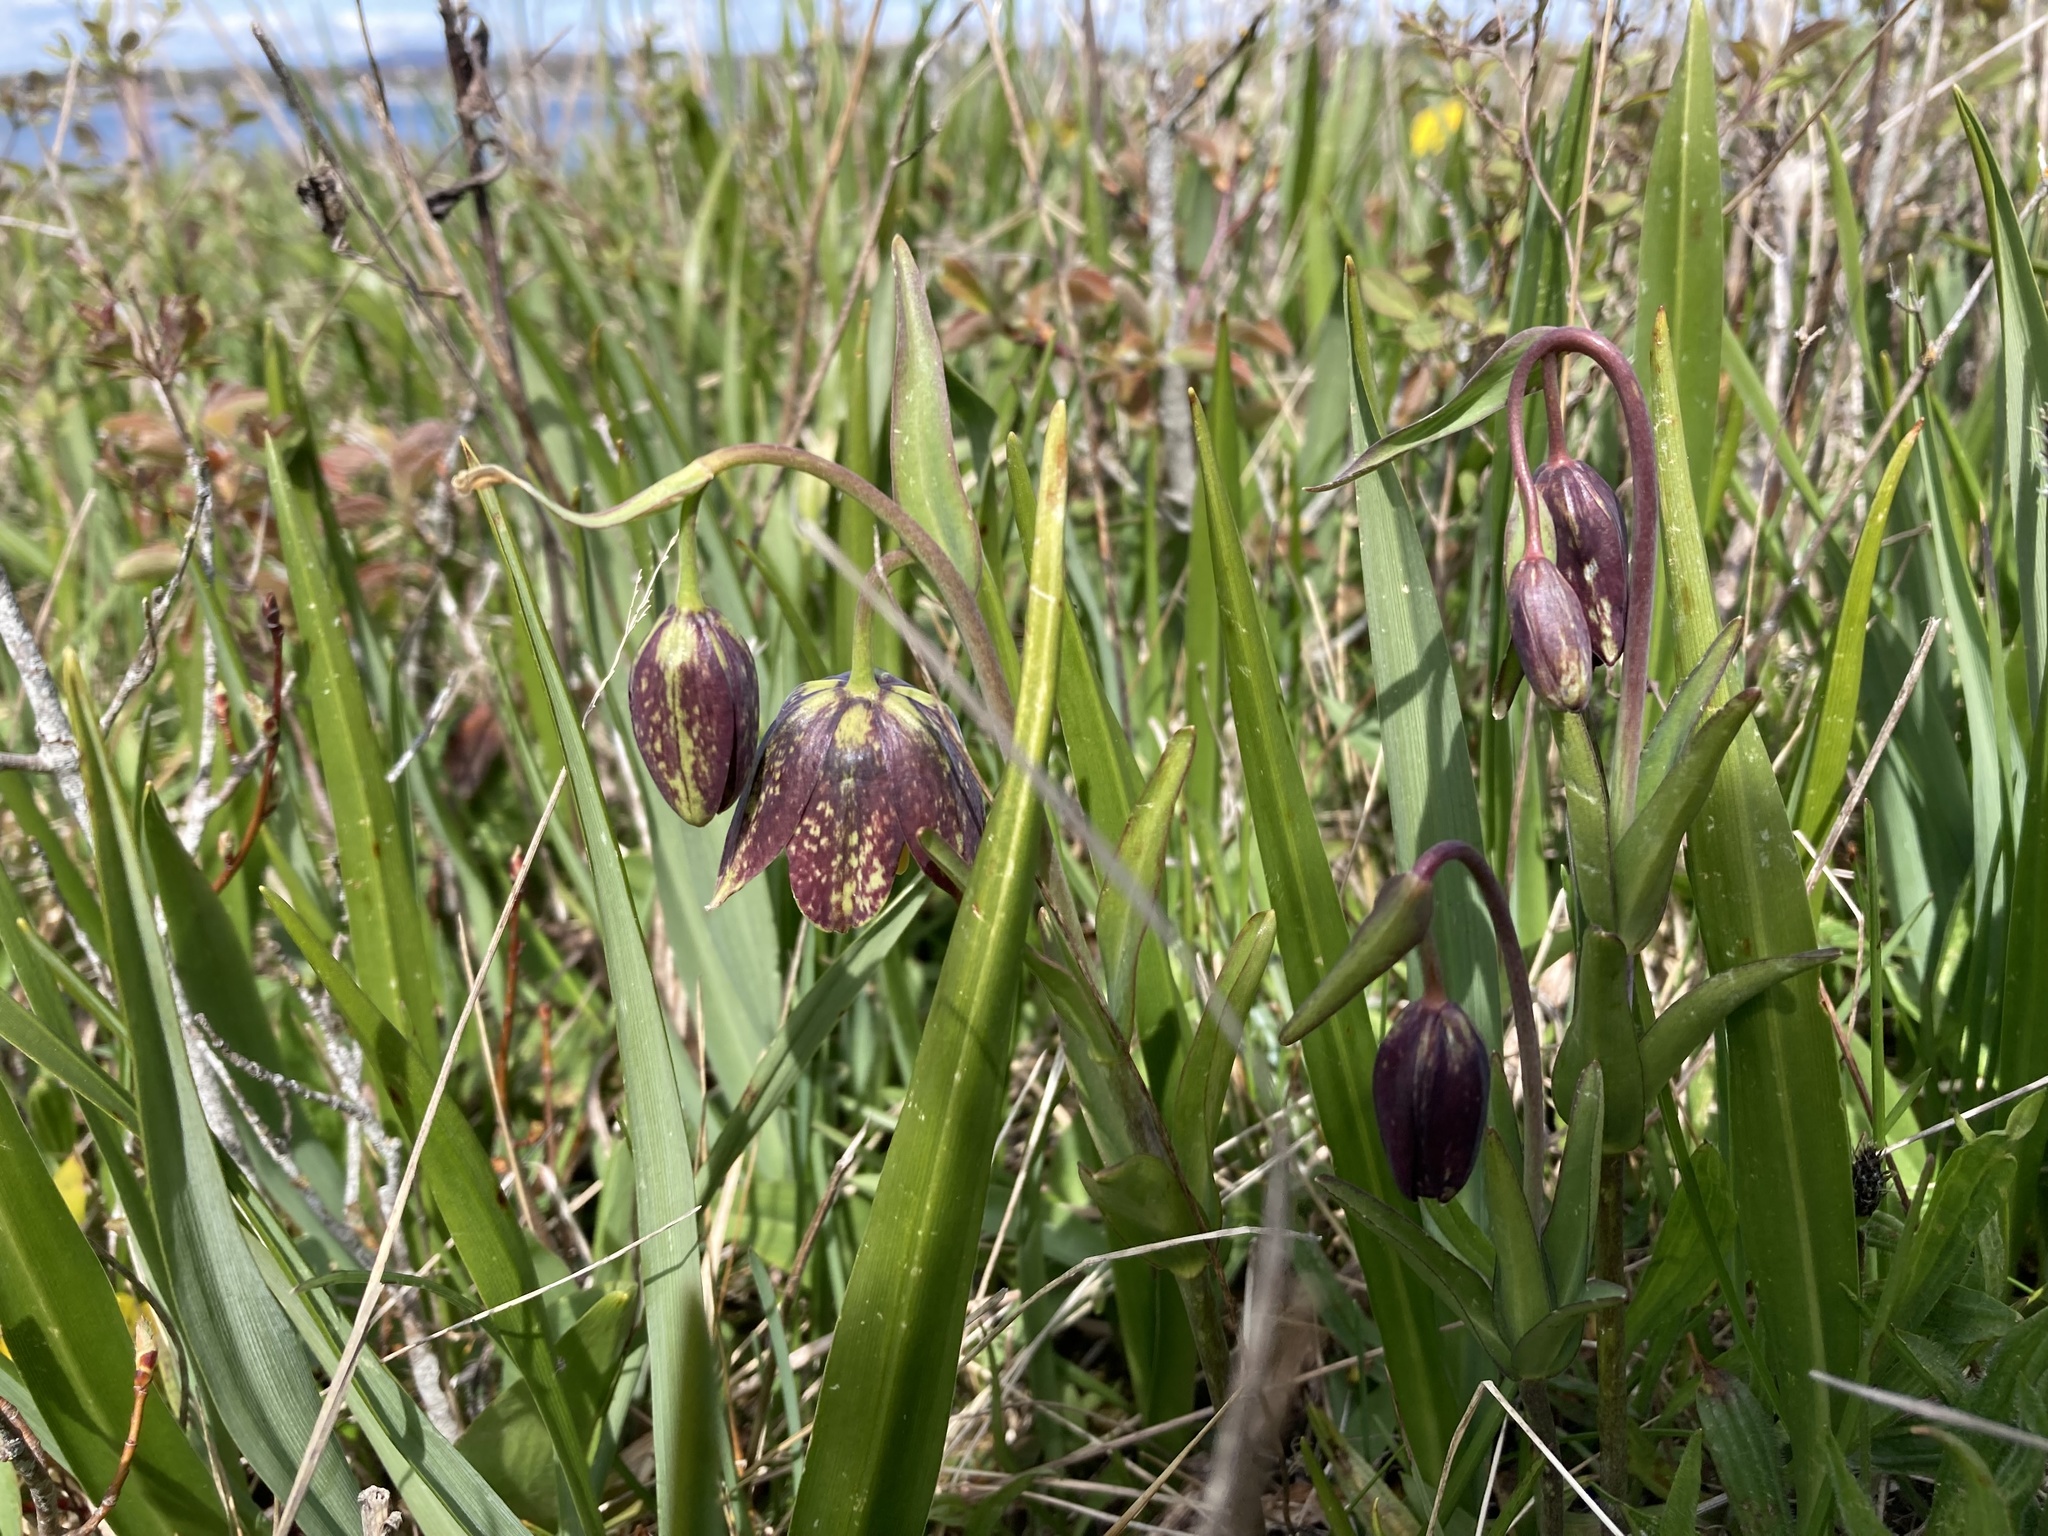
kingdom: Plantae
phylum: Tracheophyta
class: Liliopsida
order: Liliales
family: Liliaceae
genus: Fritillaria
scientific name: Fritillaria affinis
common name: Ojai fritillary
